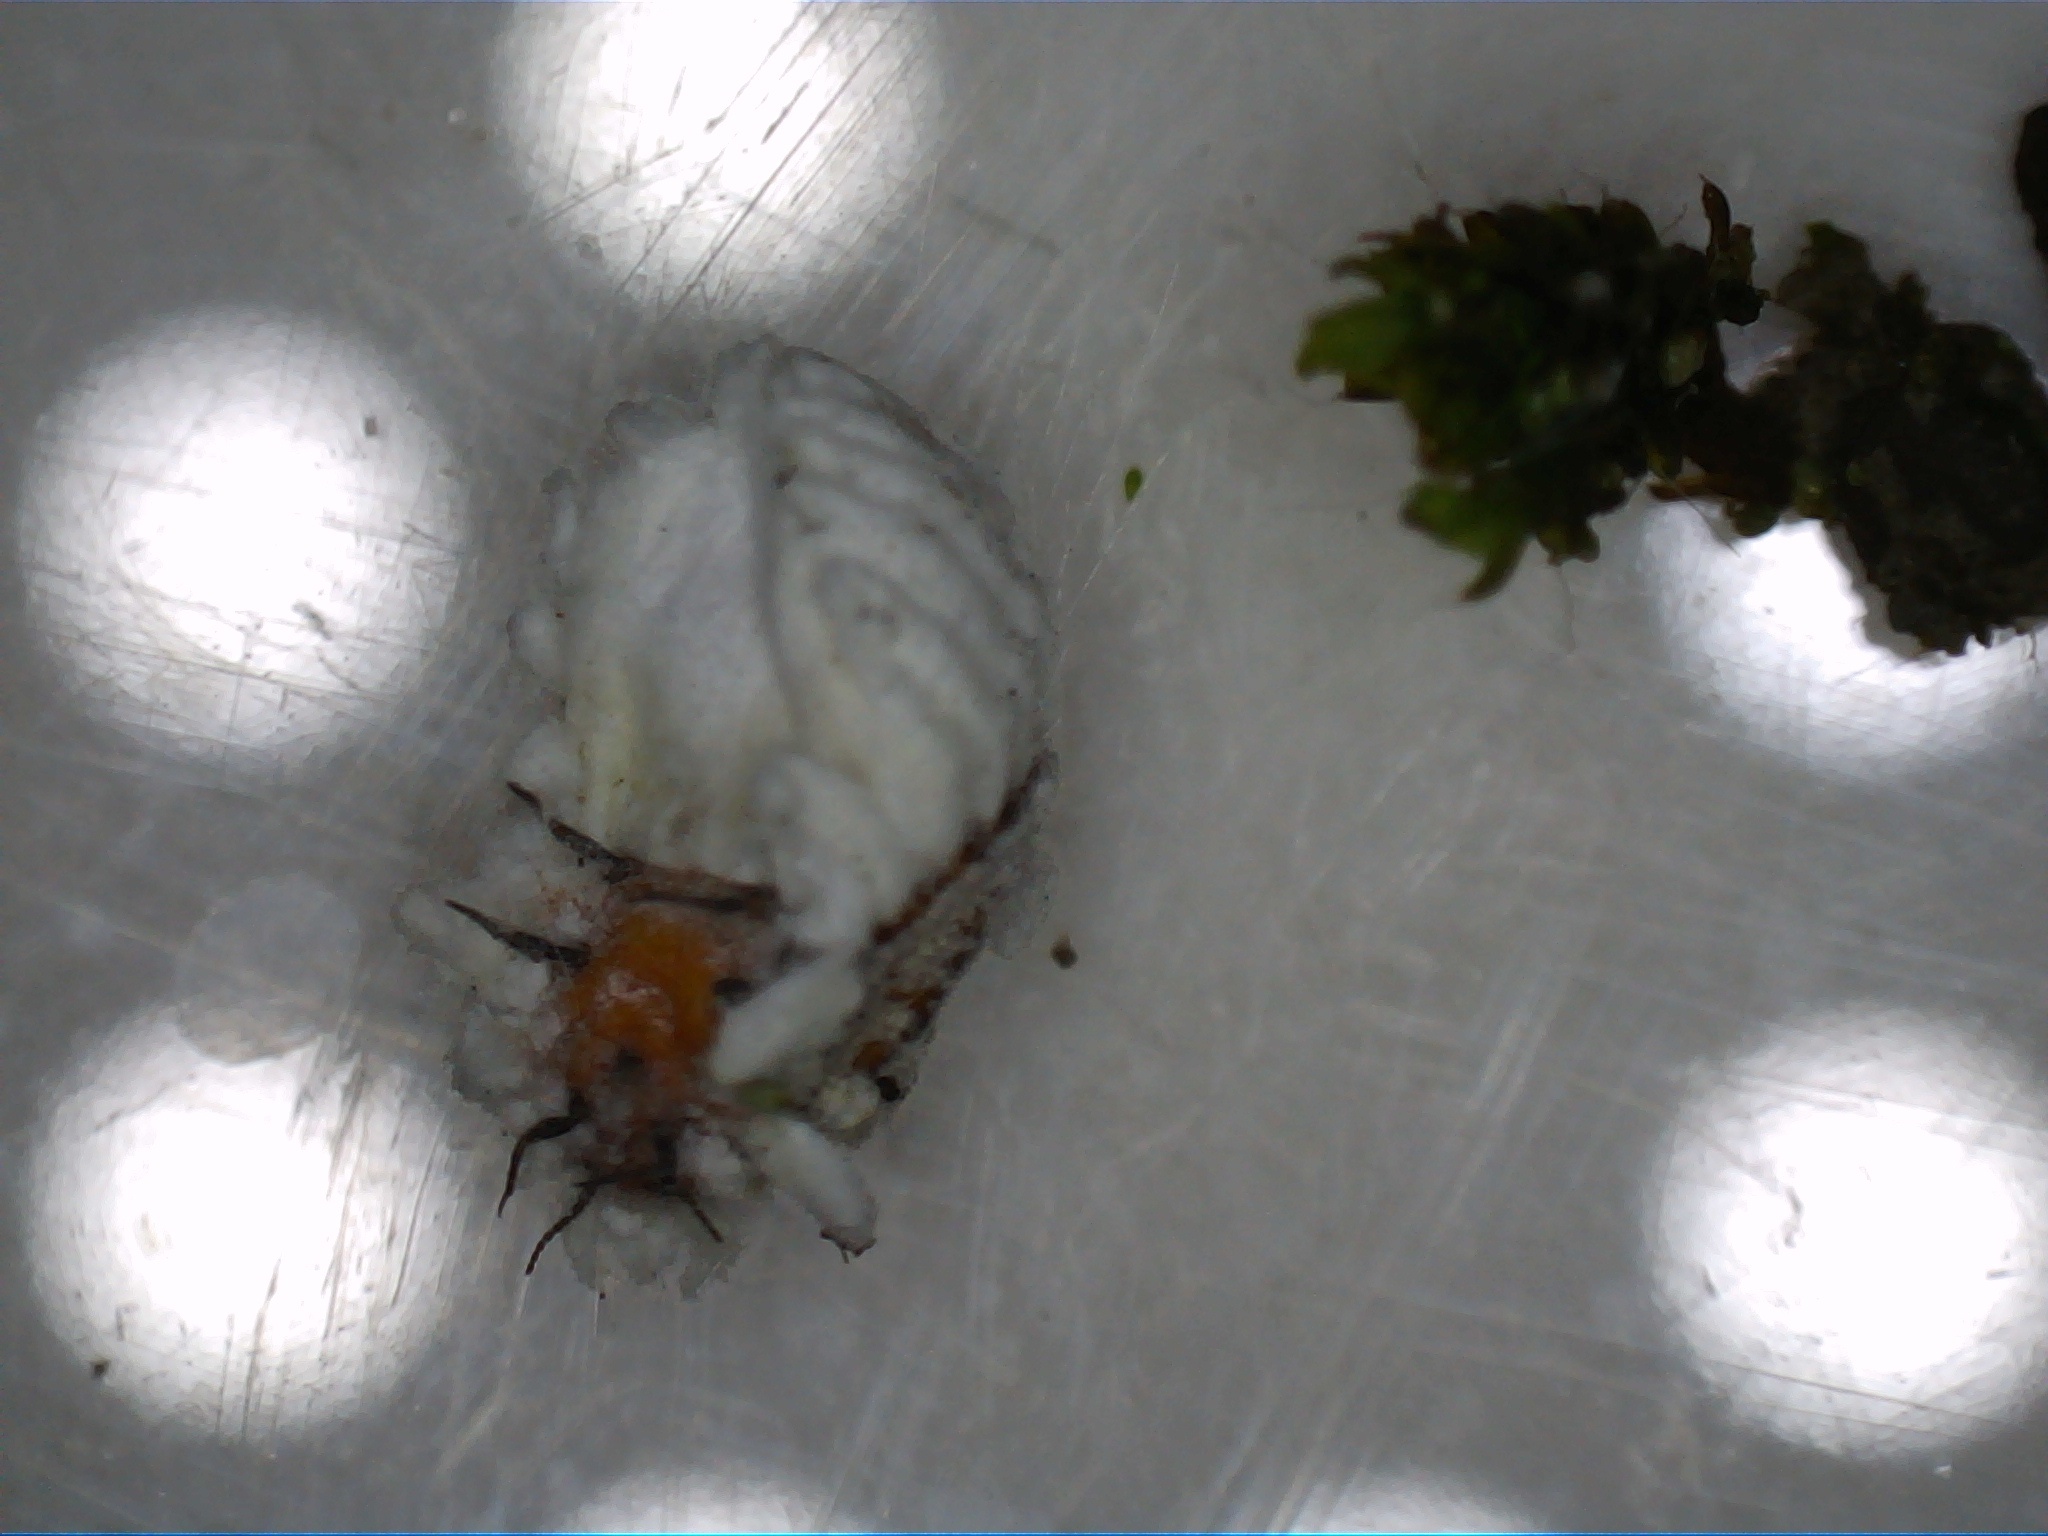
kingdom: Animalia
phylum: Arthropoda
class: Insecta
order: Hemiptera
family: Margarodidae
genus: Icerya
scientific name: Icerya purchasi
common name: Cottony cushion scale
